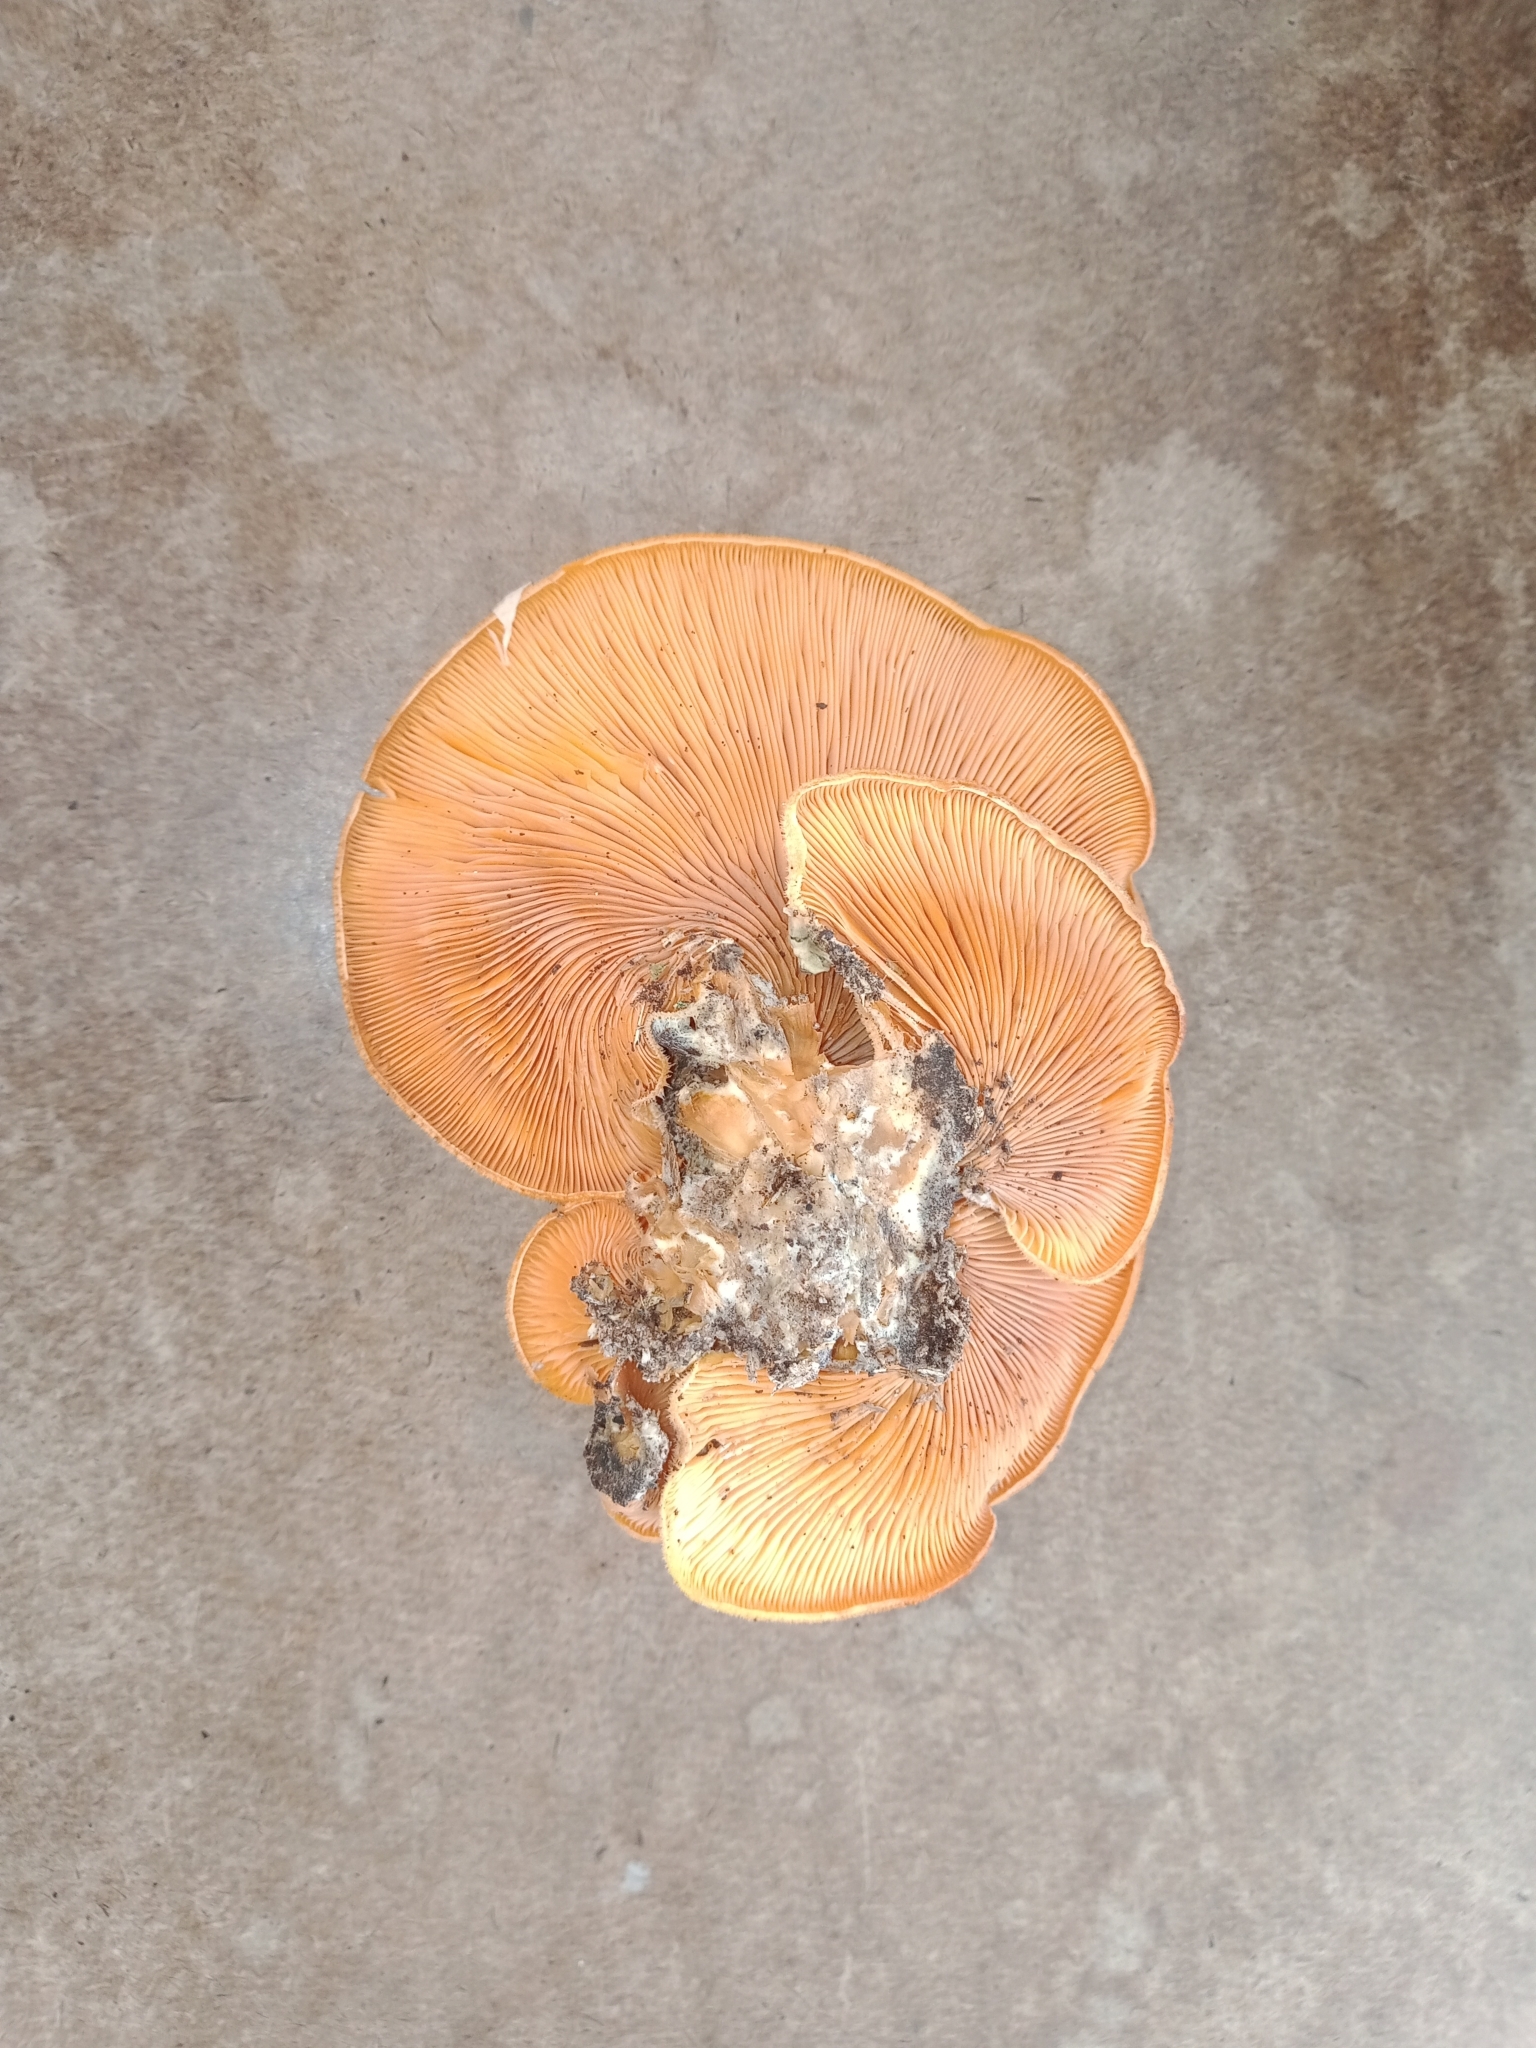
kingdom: Fungi
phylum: Basidiomycota
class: Agaricomycetes
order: Agaricales
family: Phyllotopsidaceae
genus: Phyllotopsis
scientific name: Phyllotopsis nidulans
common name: Orange mock oyster
